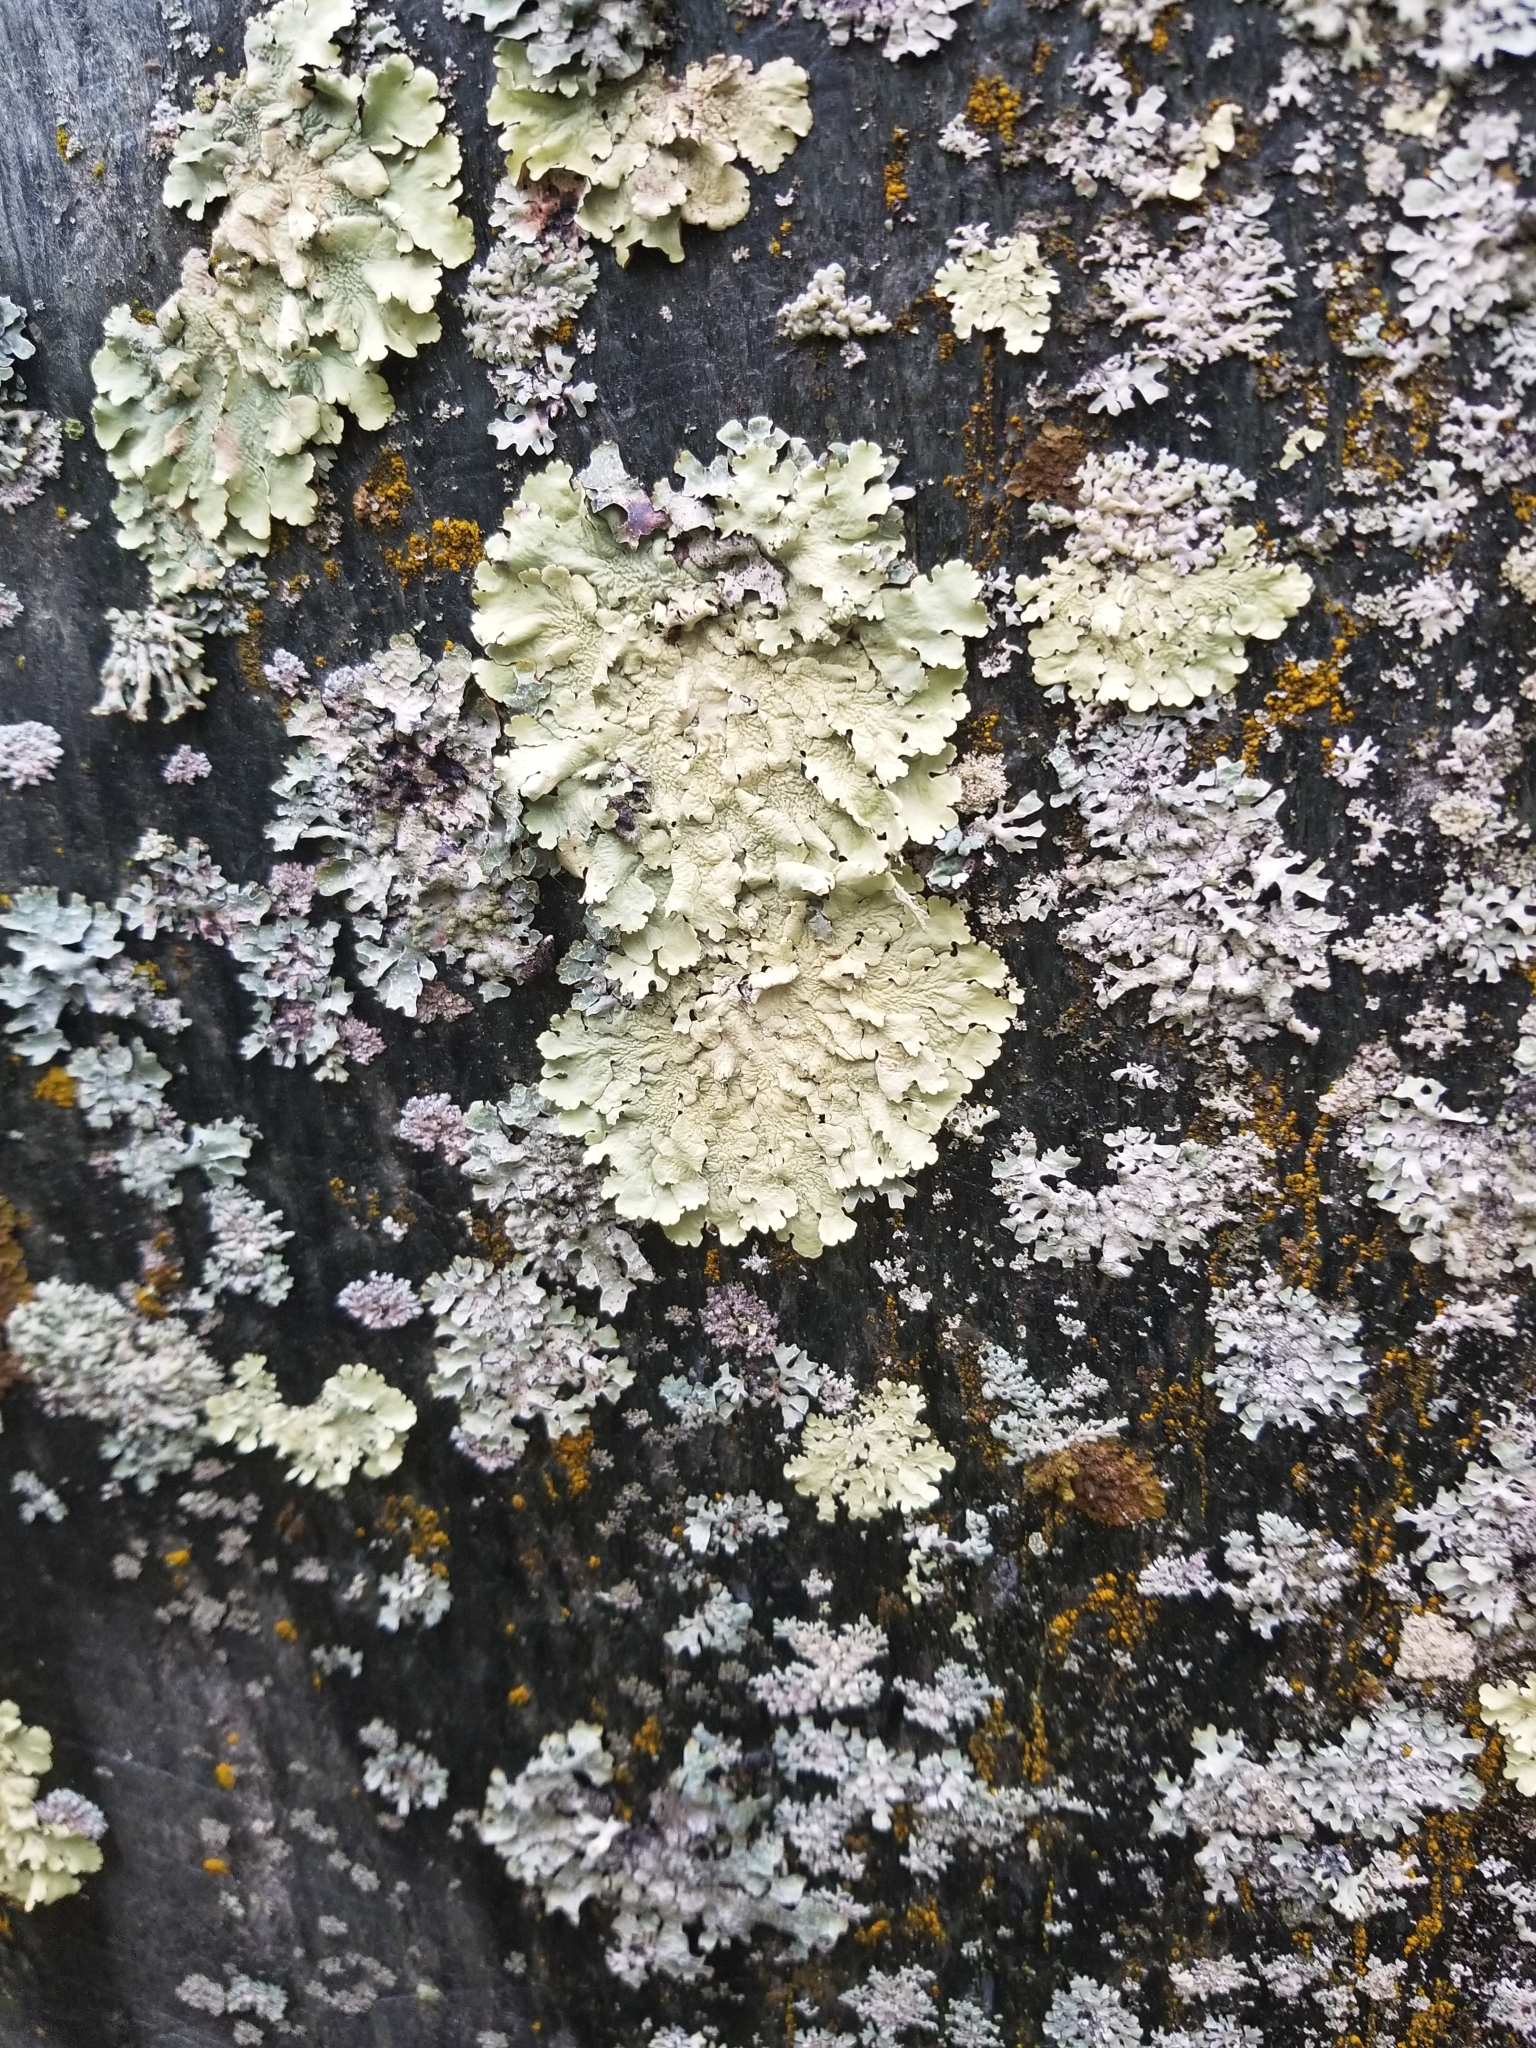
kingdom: Fungi
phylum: Ascomycota
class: Lecanoromycetes
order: Lecanorales
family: Parmeliaceae
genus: Flavoparmelia
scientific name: Flavoparmelia caperata
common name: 40-mile per hour lichen
